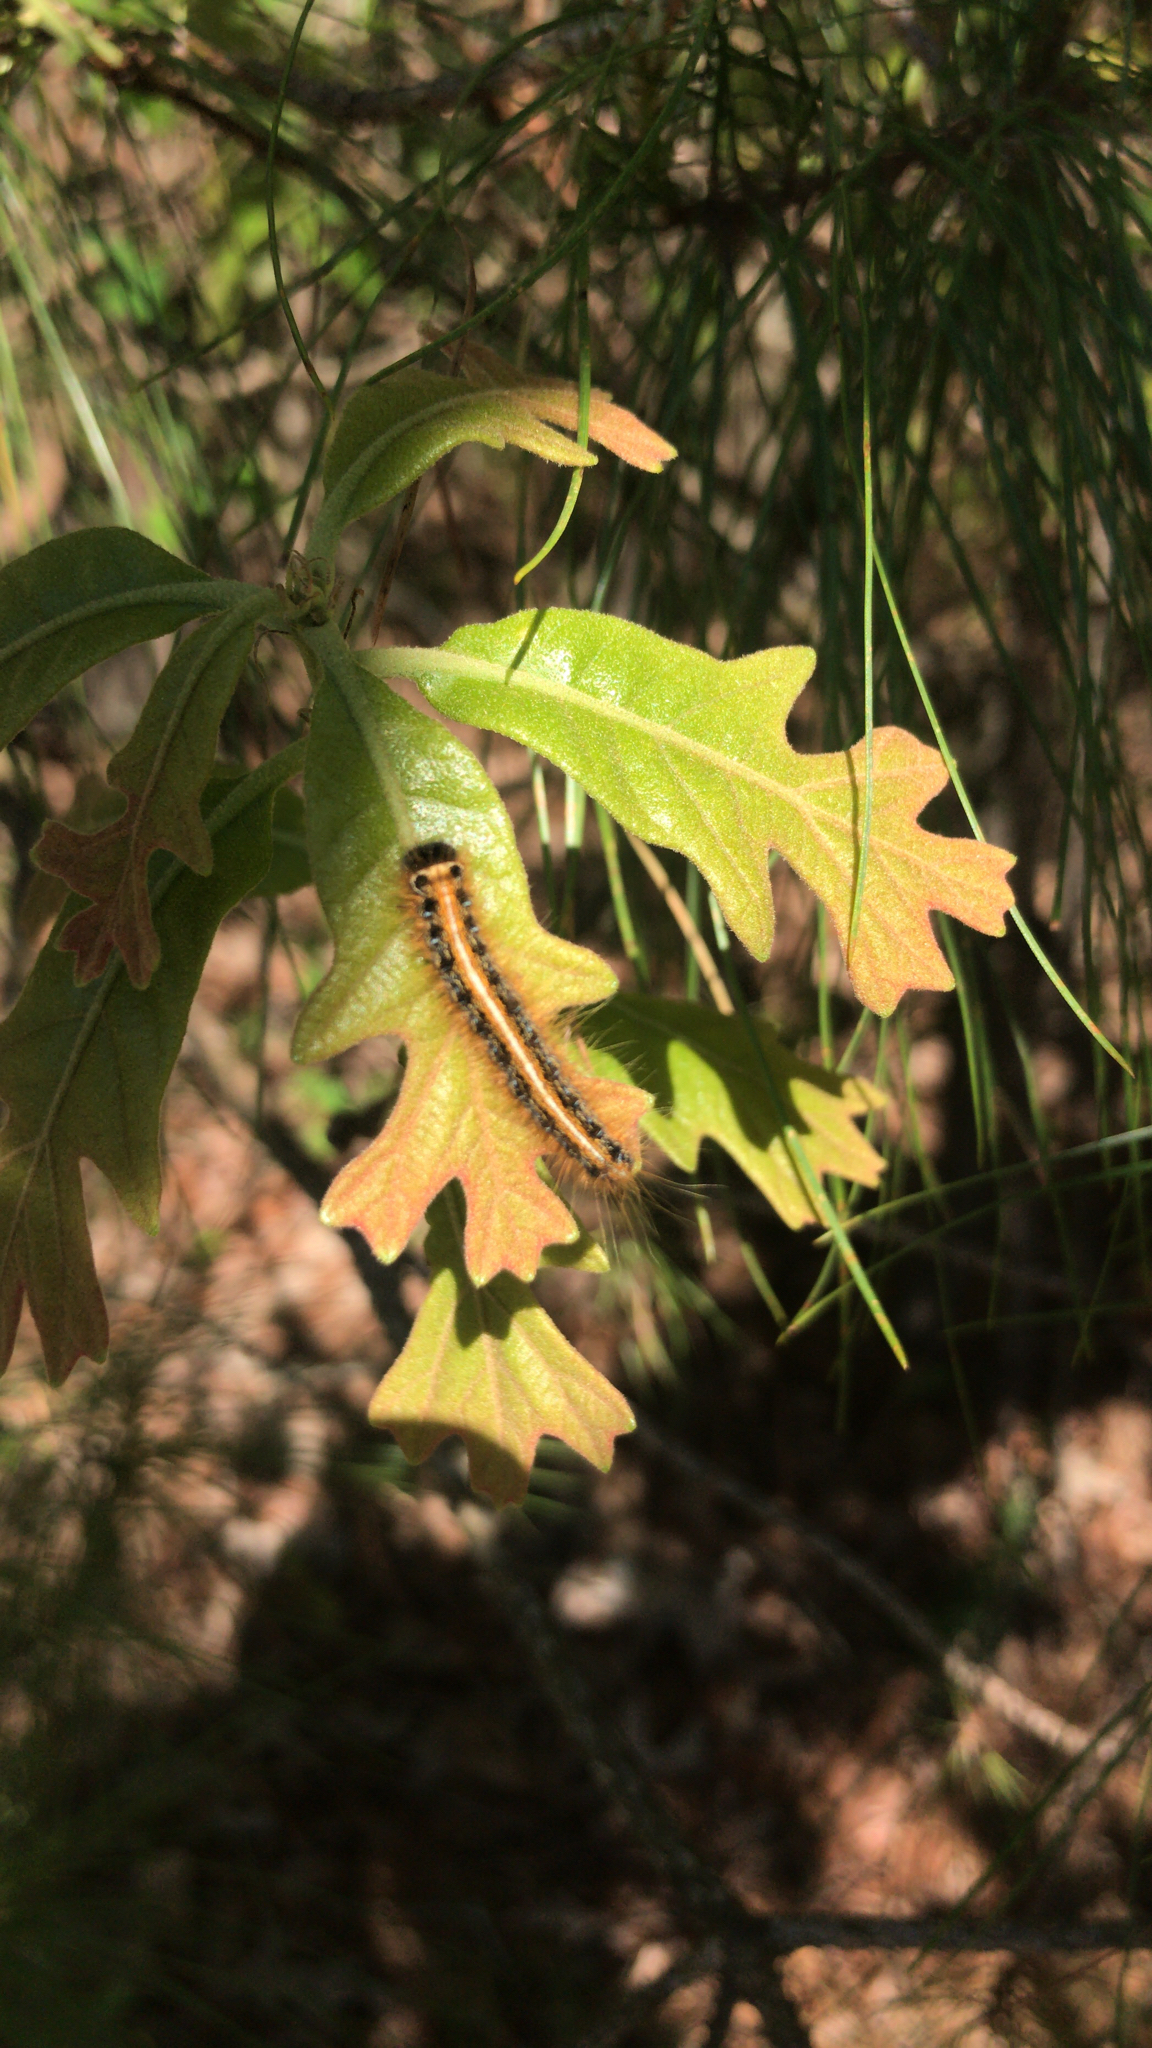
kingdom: Animalia
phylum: Arthropoda
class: Insecta
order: Lepidoptera
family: Lasiocampidae
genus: Malacosoma
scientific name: Malacosoma americana
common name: Eastern tent caterpillar moth
